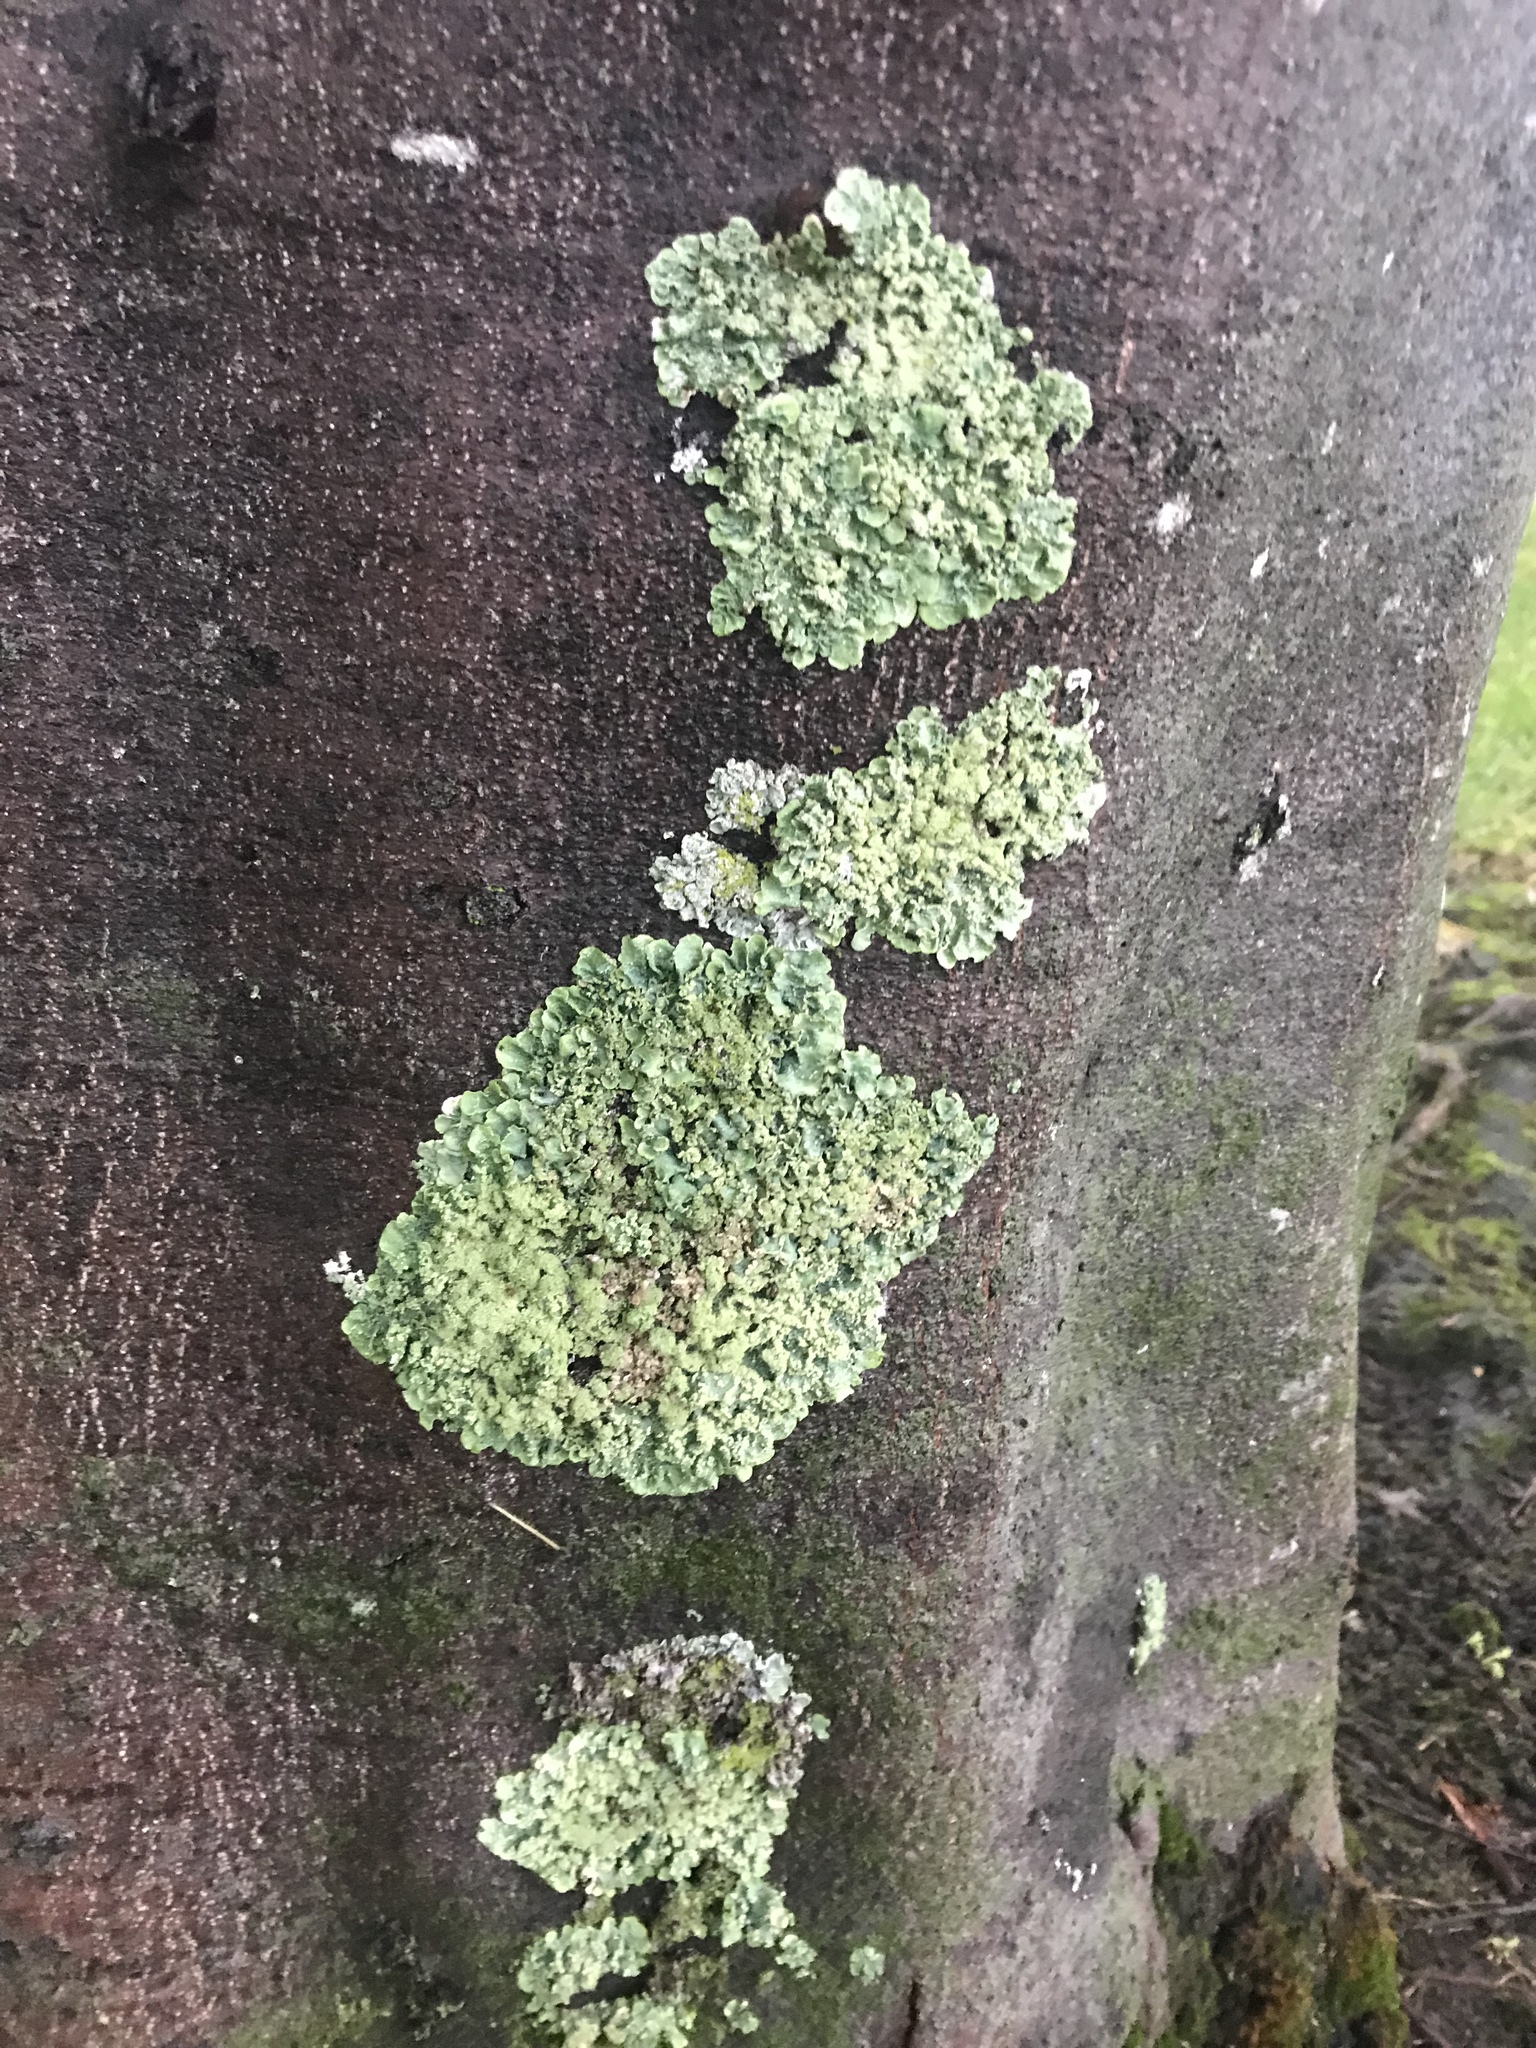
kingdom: Fungi
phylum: Ascomycota
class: Lecanoromycetes
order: Lecanorales
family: Parmeliaceae
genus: Flavoparmelia
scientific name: Flavoparmelia caperata
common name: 40-mile per hour lichen
